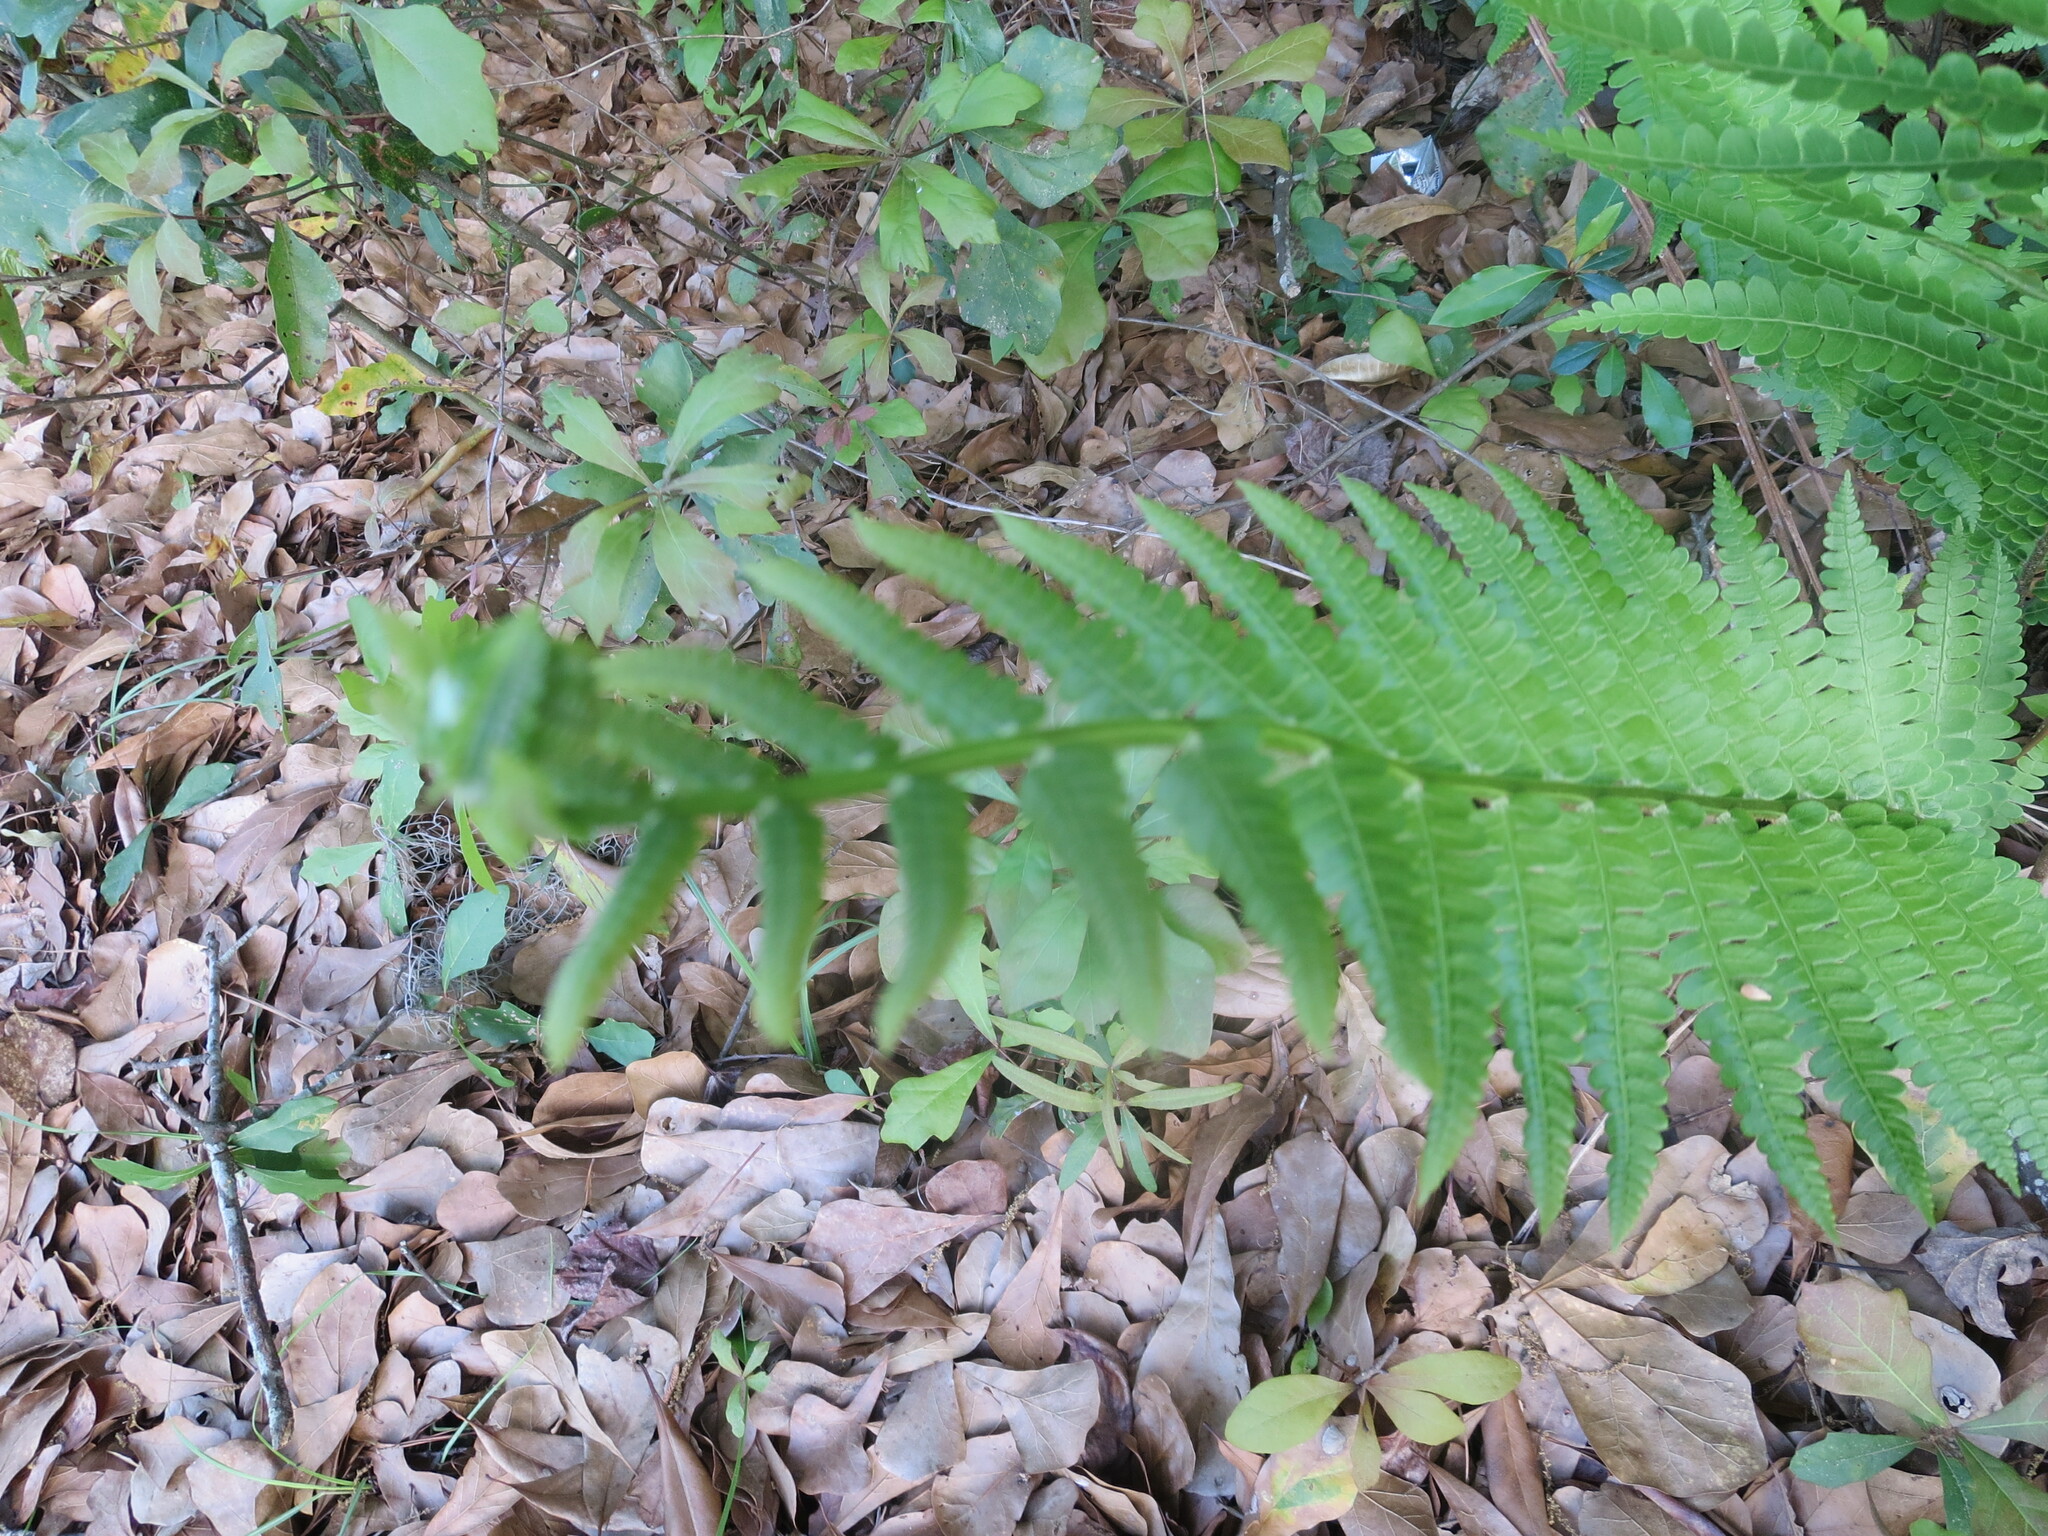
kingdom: Plantae
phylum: Tracheophyta
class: Polypodiopsida
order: Osmundales
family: Osmundaceae
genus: Osmundastrum
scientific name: Osmundastrum cinnamomeum
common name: Cinnamon fern
